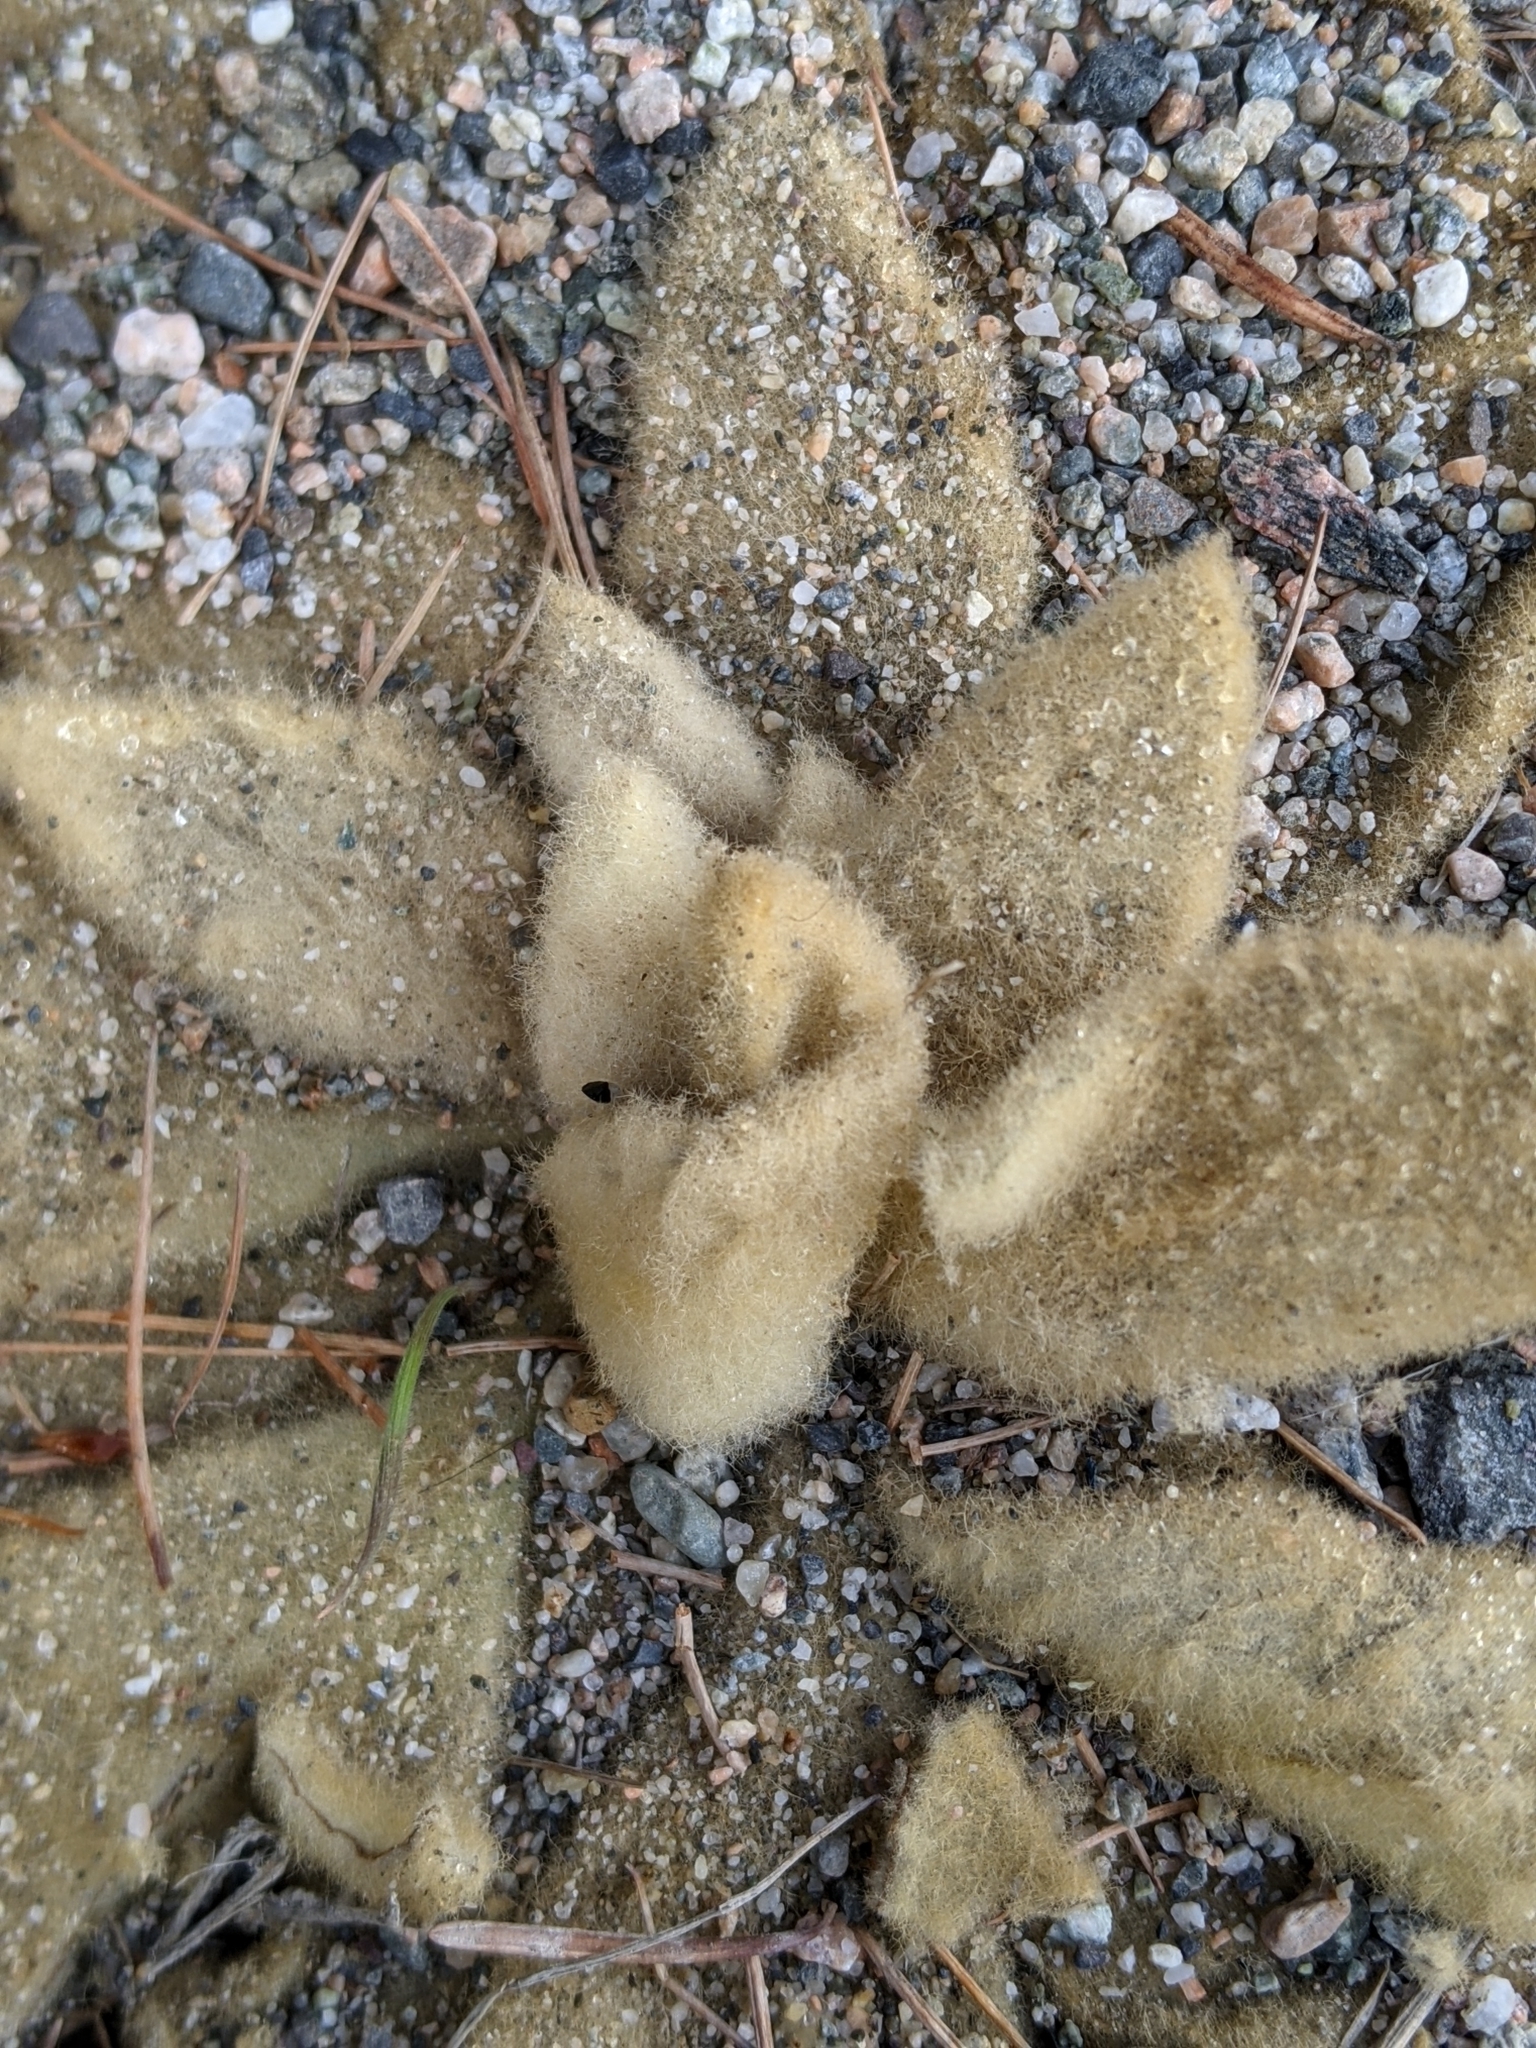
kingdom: Plantae
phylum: Tracheophyta
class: Magnoliopsida
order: Lamiales
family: Scrophulariaceae
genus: Verbascum
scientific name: Verbascum thapsus
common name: Common mullein
